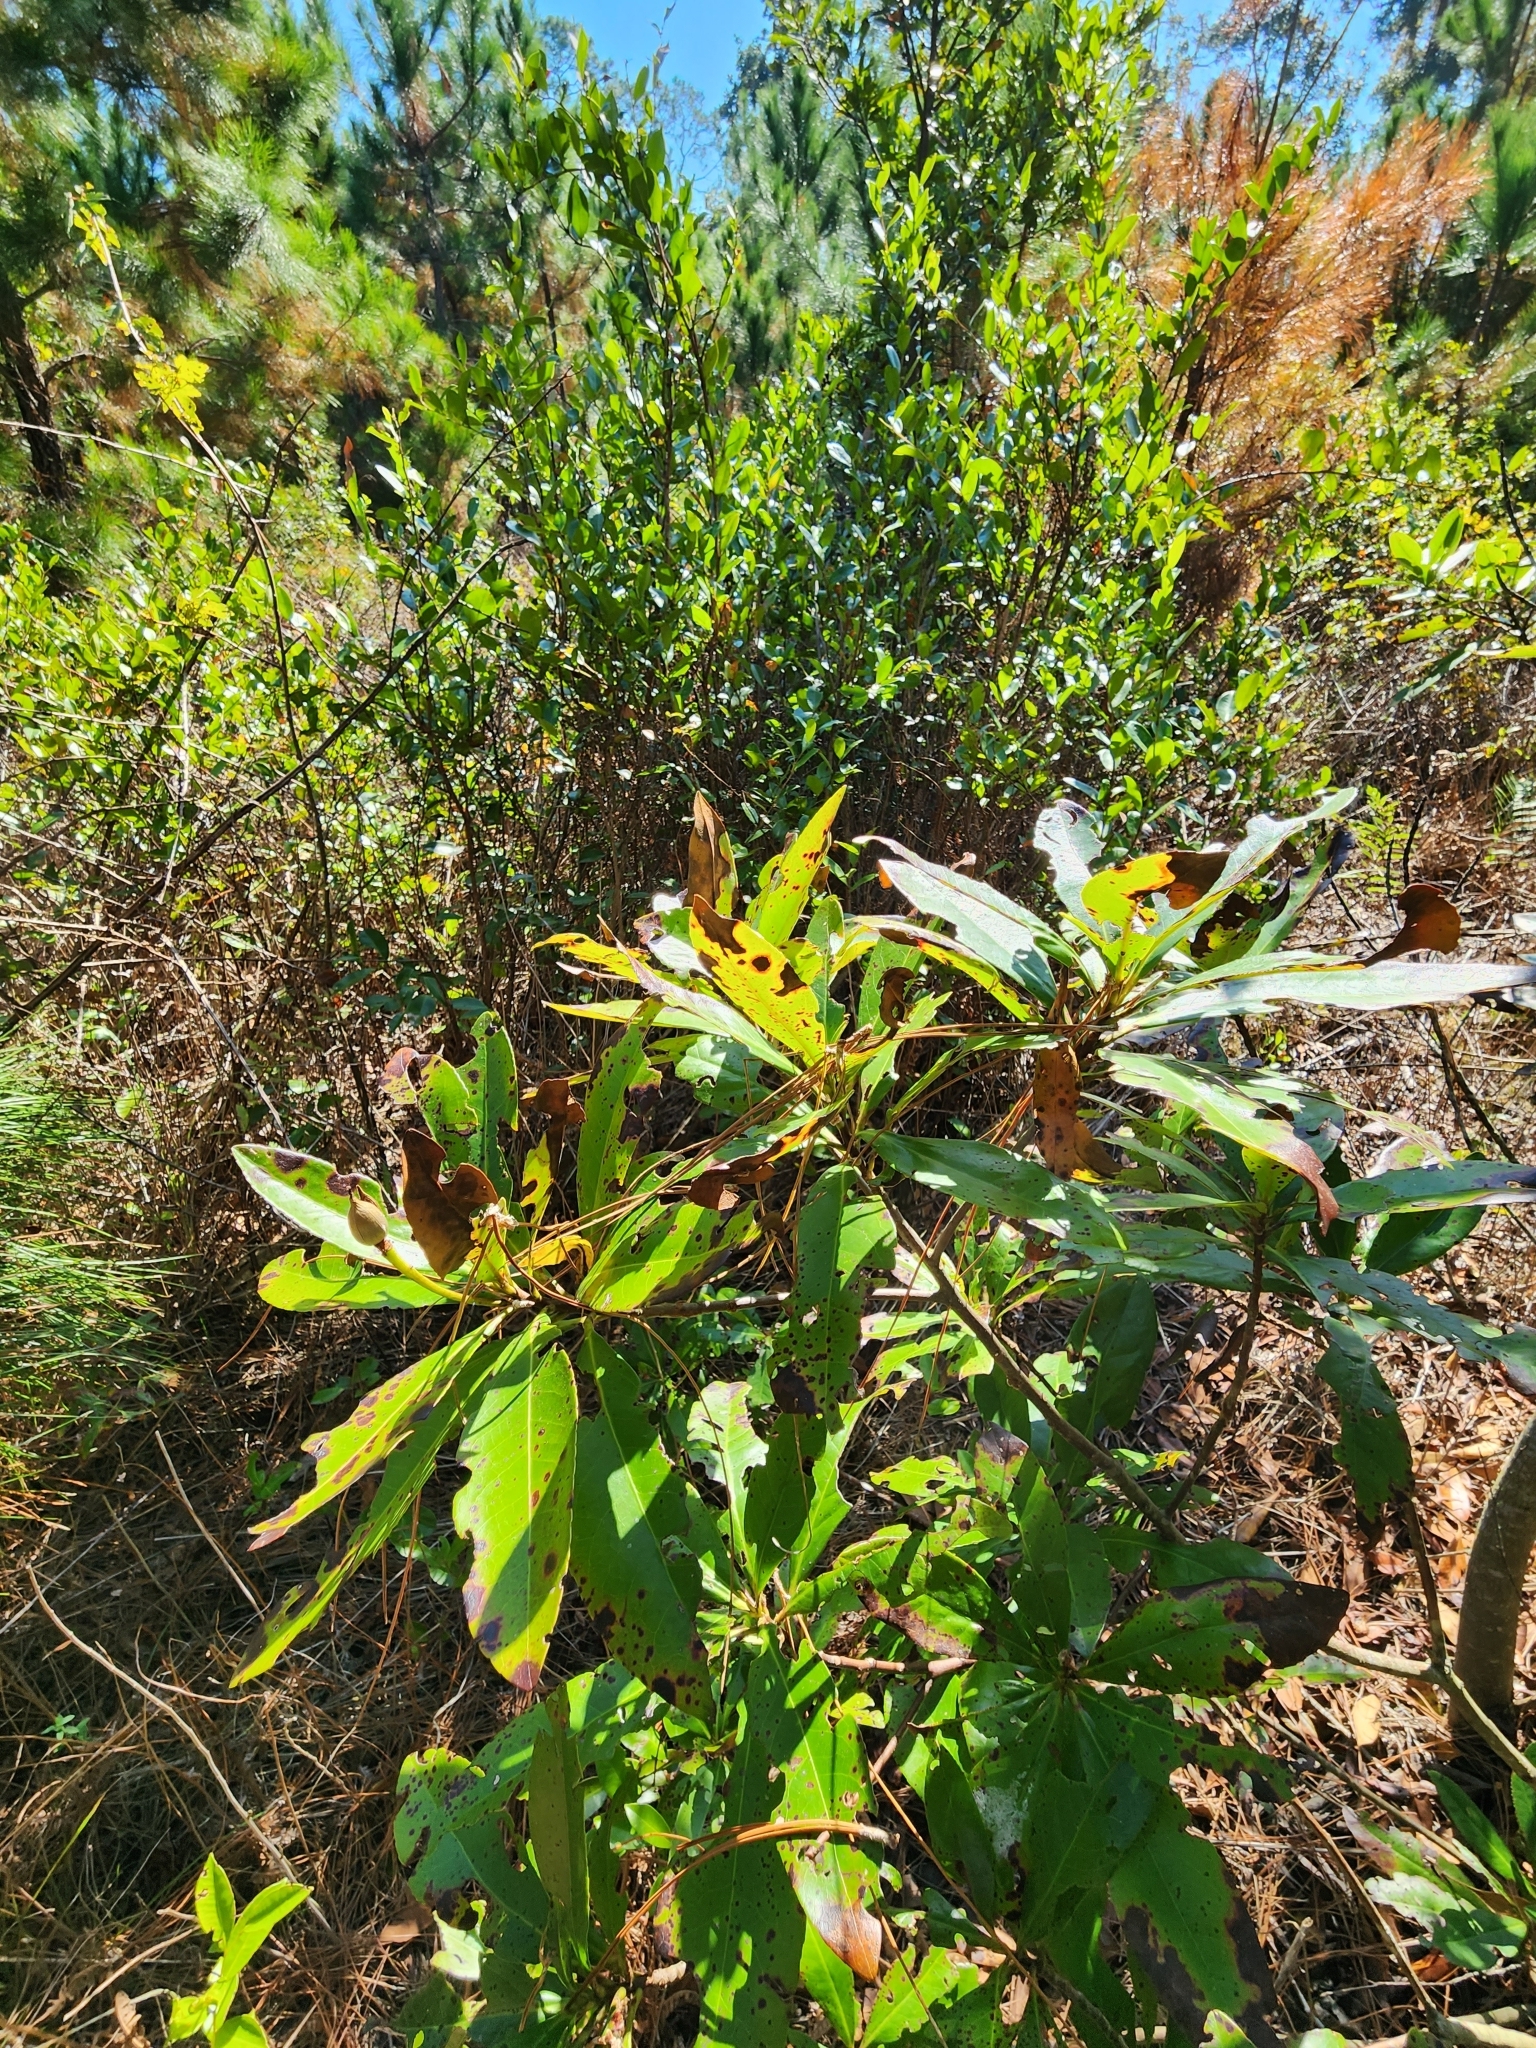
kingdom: Plantae
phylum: Tracheophyta
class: Magnoliopsida
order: Ericales
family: Theaceae
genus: Gordonia
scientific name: Gordonia lasianthus
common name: Loblolly bay
